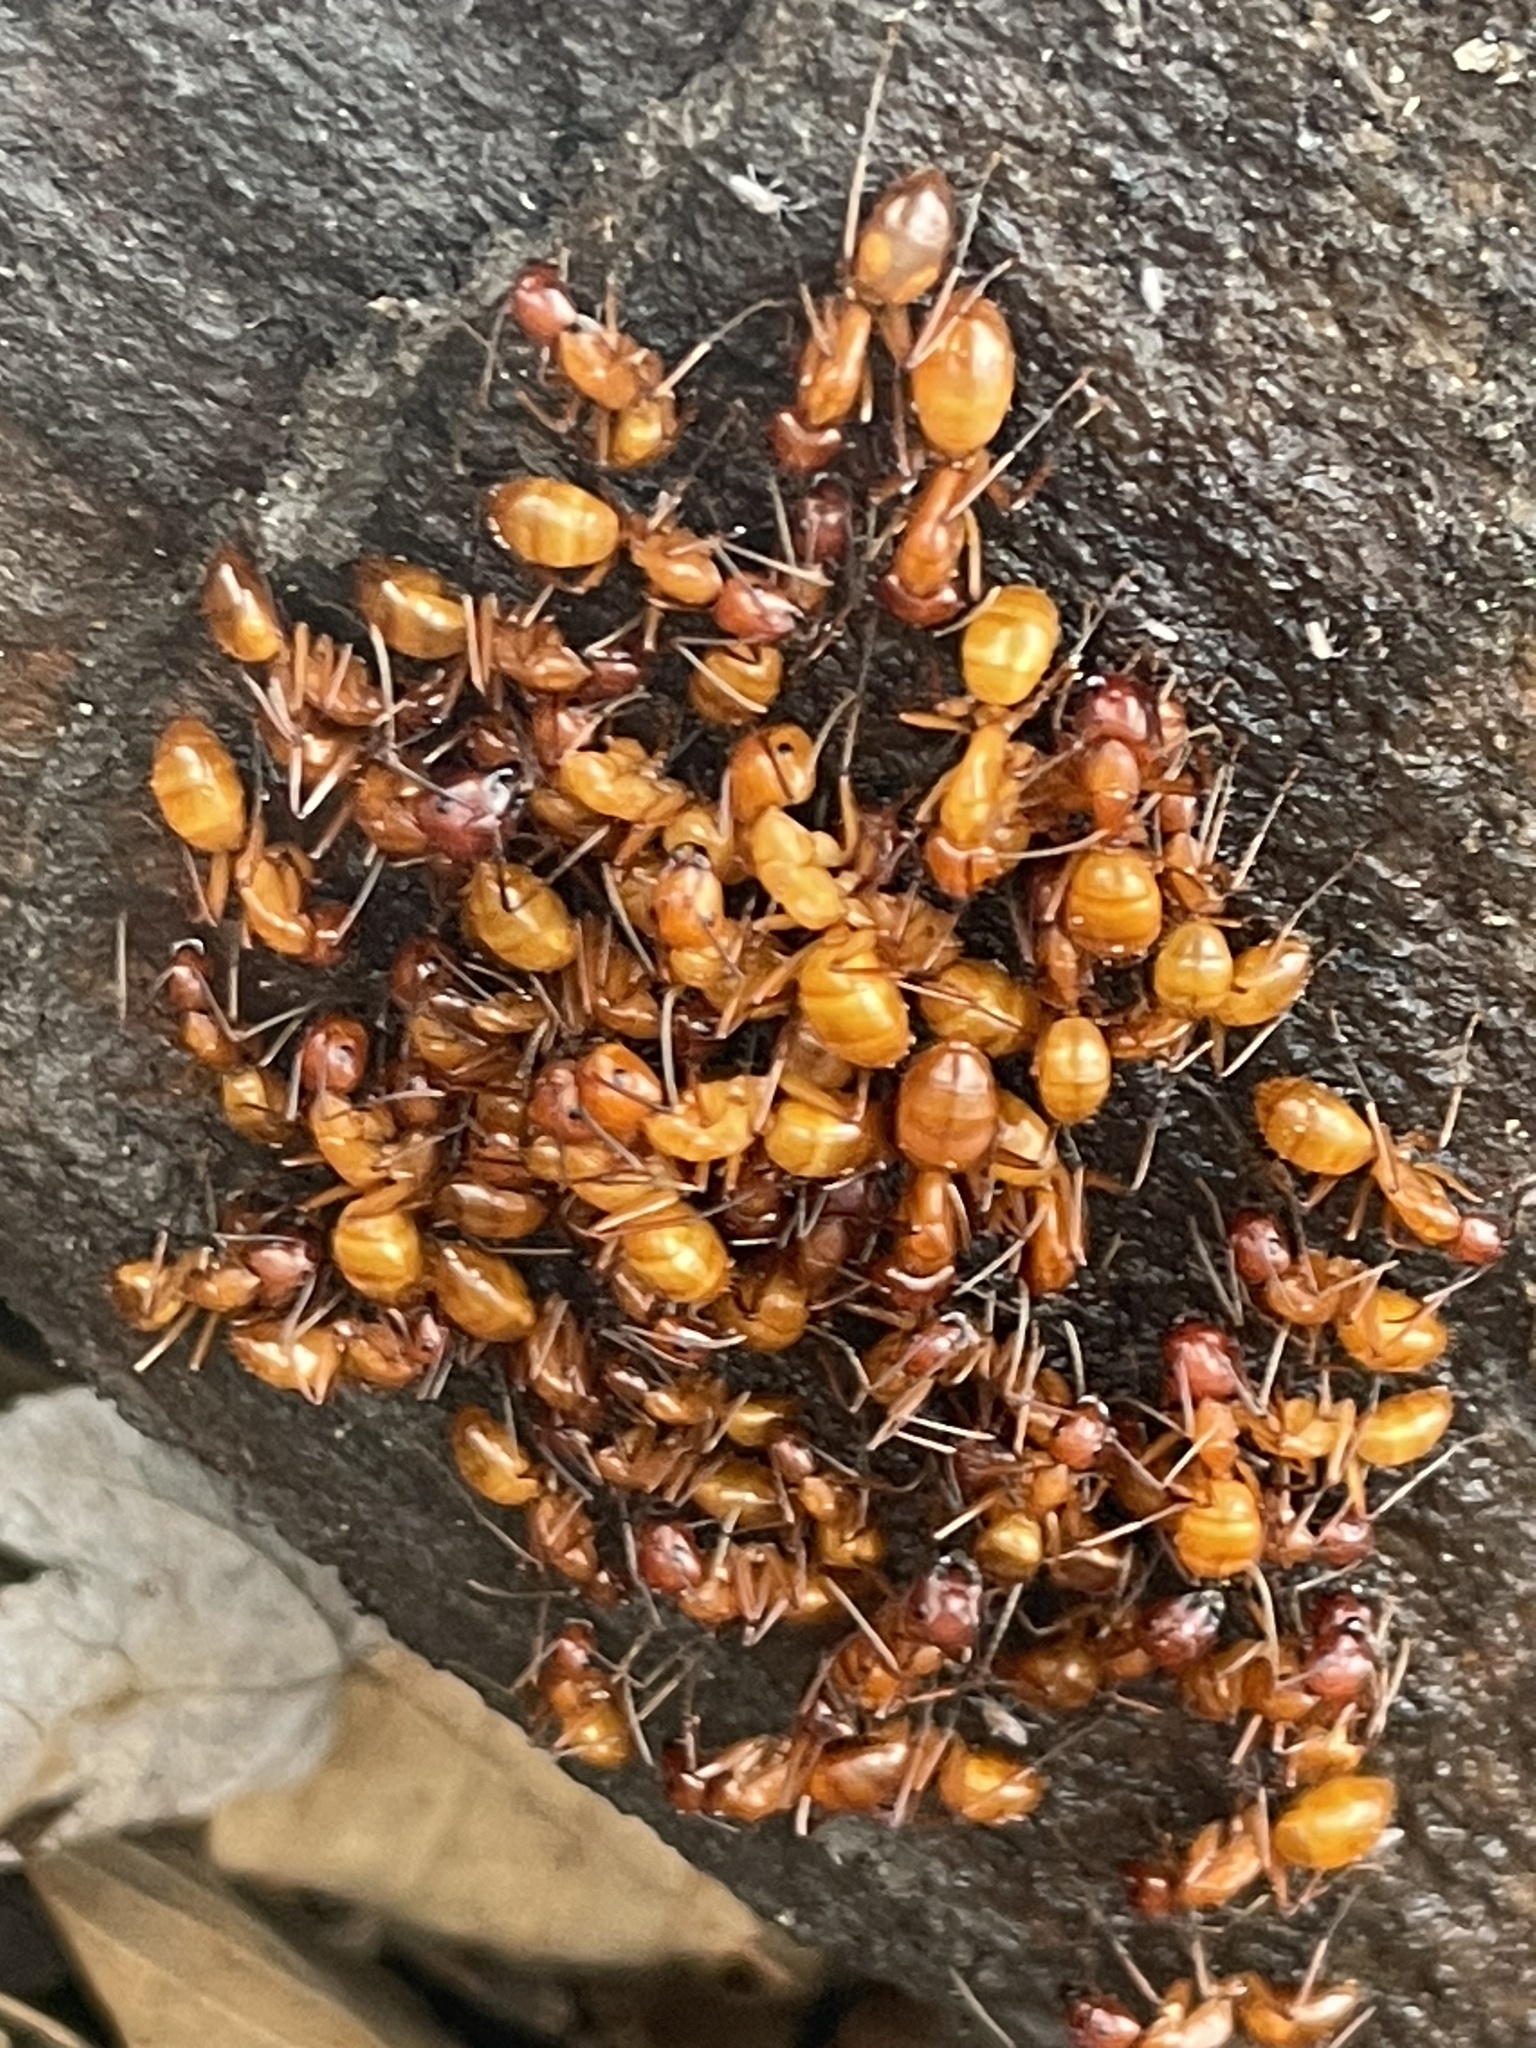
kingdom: Animalia
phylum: Arthropoda
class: Insecta
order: Hymenoptera
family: Formicidae
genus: Camponotus
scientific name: Camponotus castaneus
